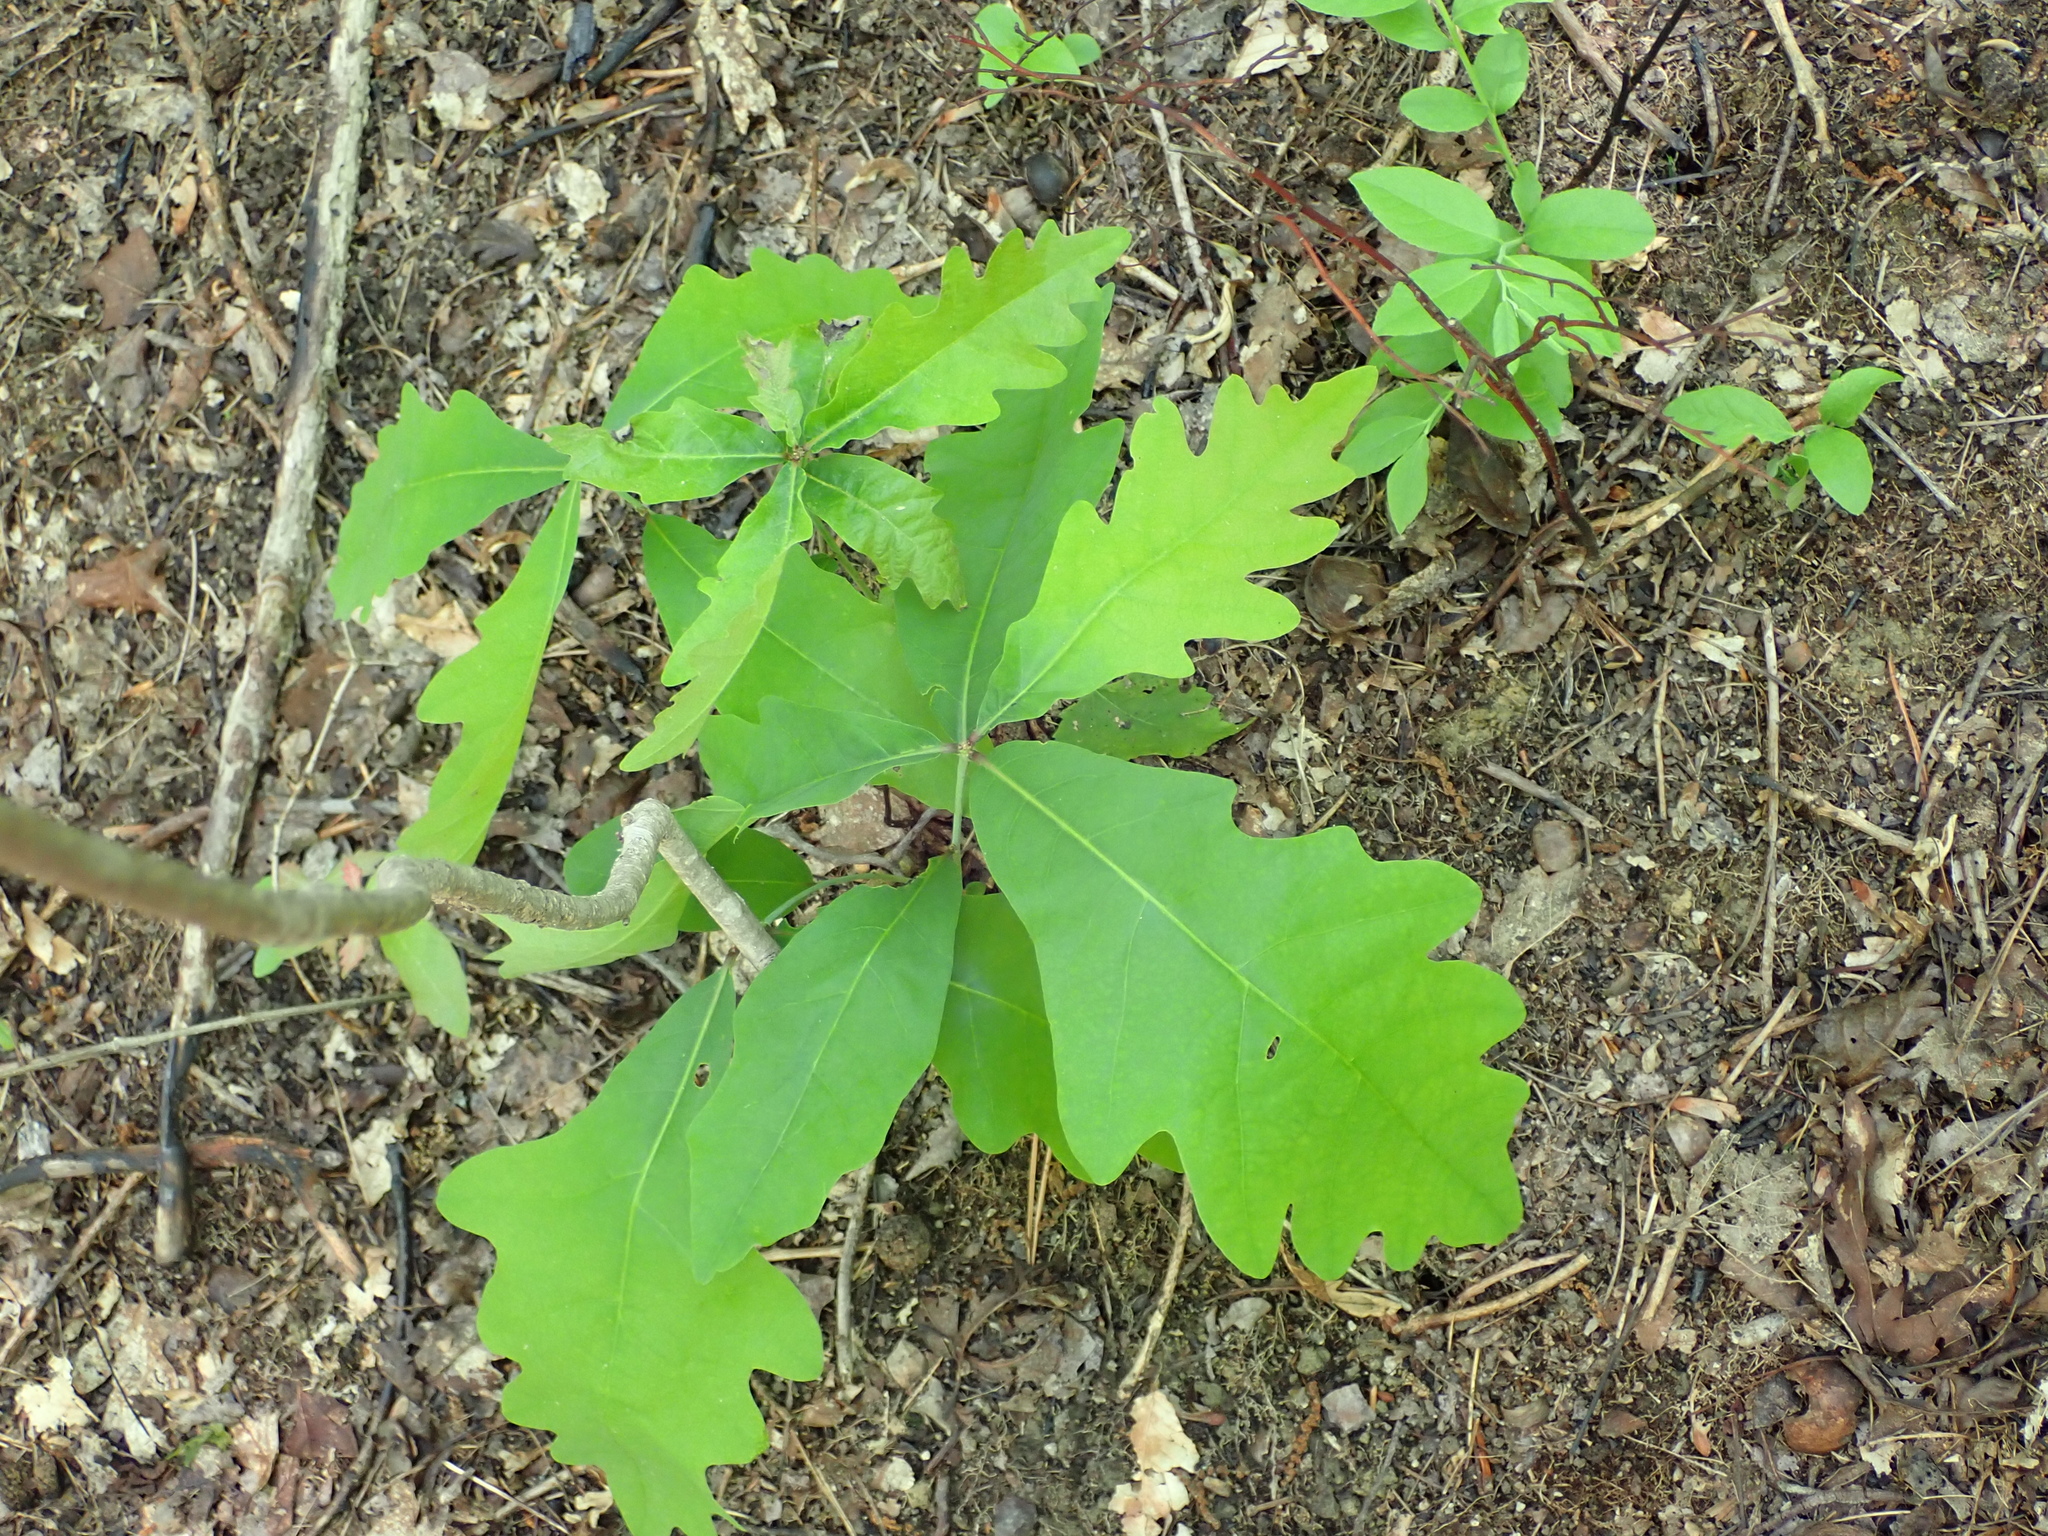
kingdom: Plantae
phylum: Tracheophyta
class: Magnoliopsida
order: Fagales
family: Fagaceae
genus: Quercus
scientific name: Quercus alba
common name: White oak
